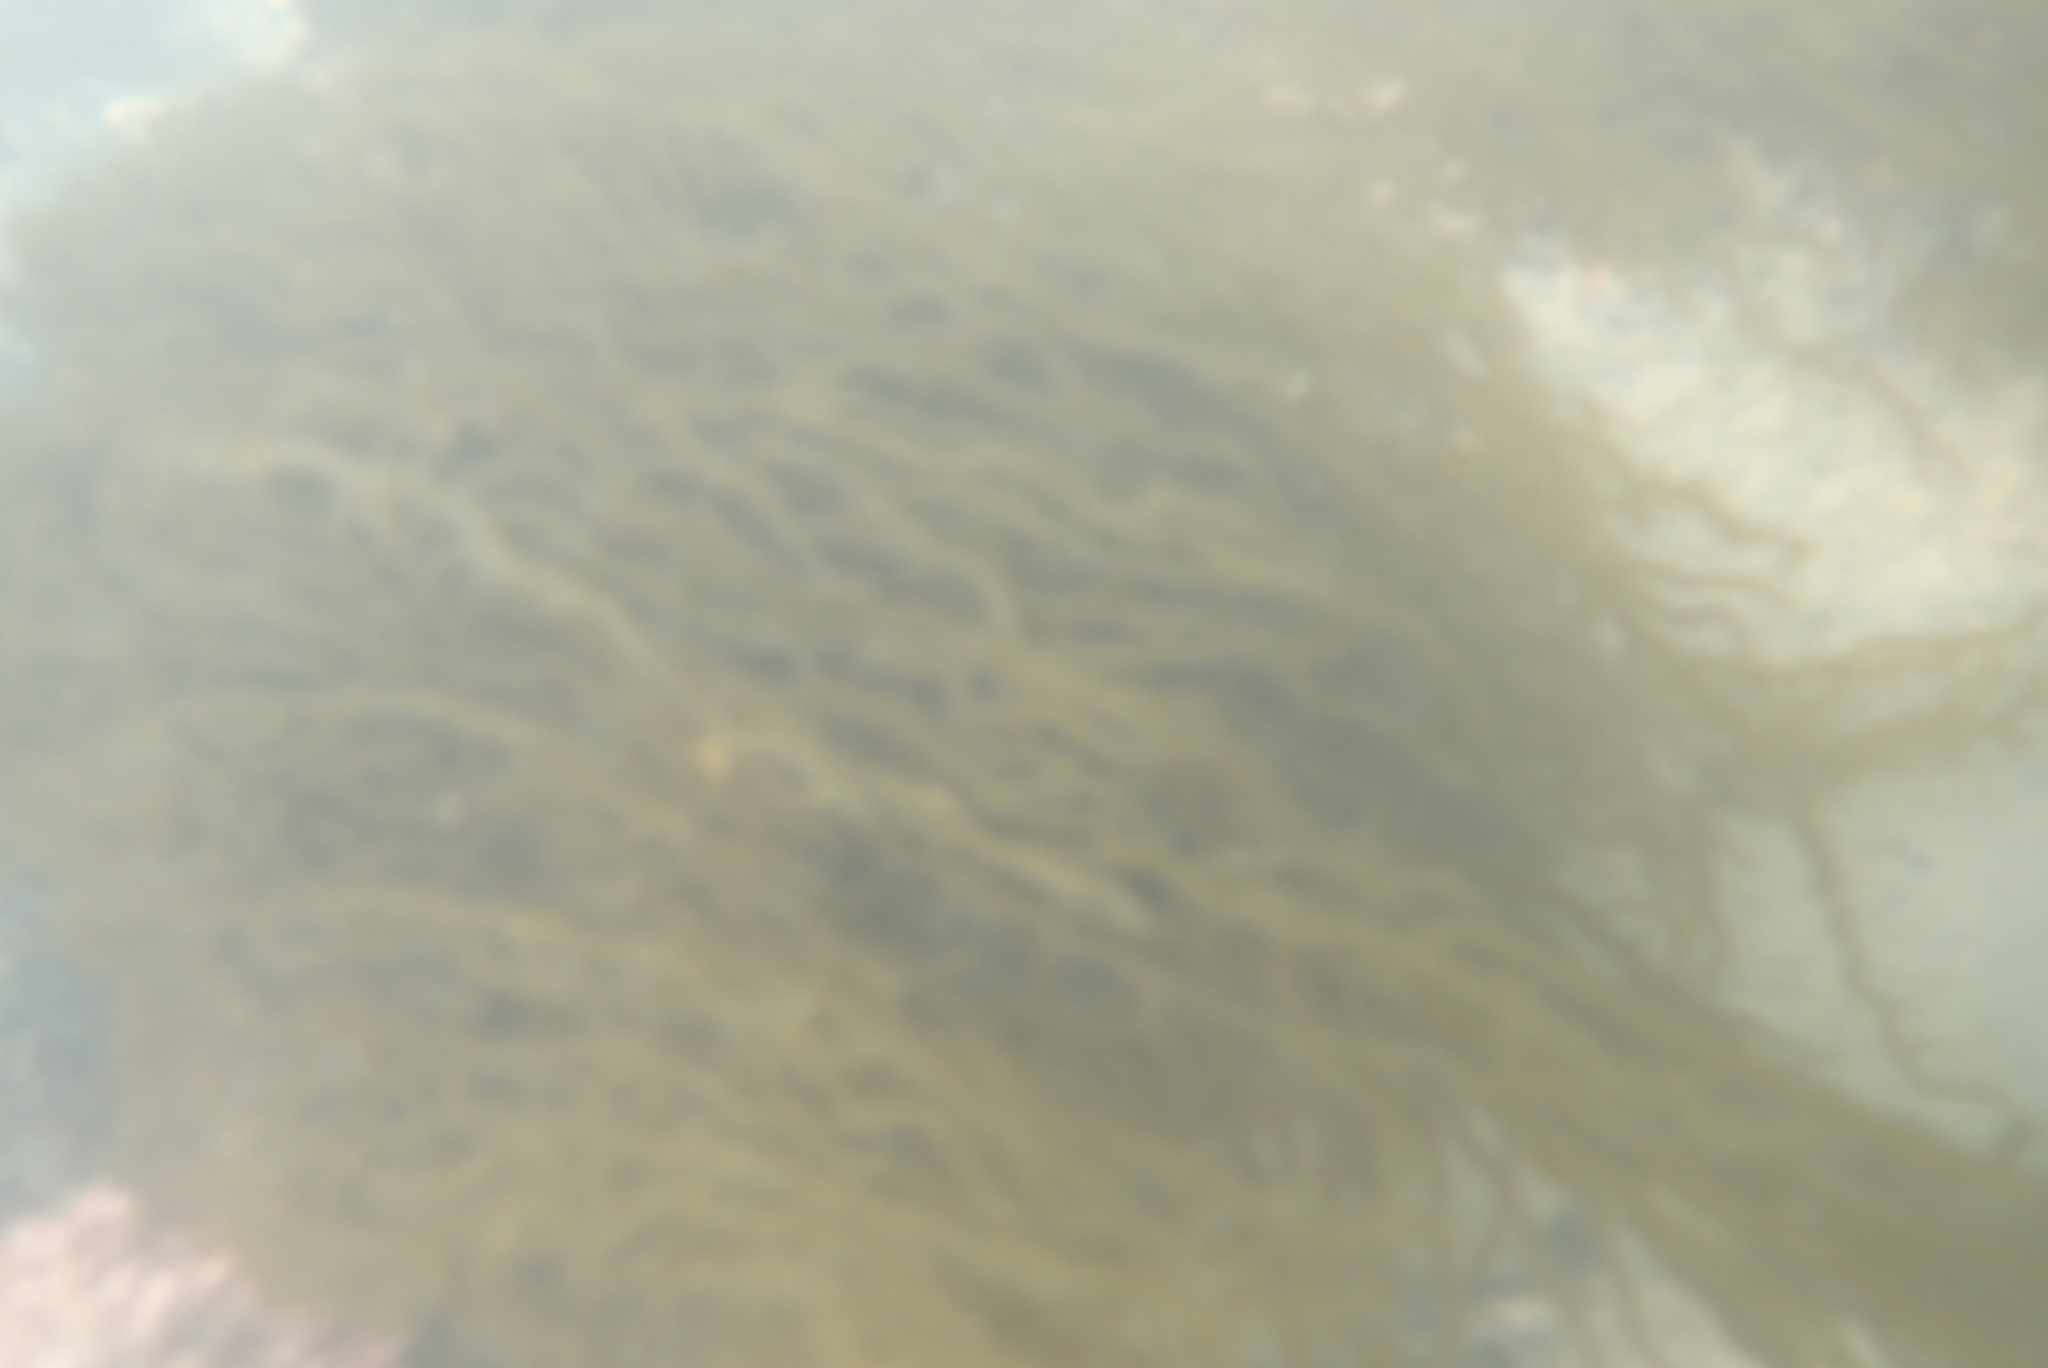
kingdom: Chromista
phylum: Ochrophyta
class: Phaeophyceae
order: Scytothamnales
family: Scytothamnaceae
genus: Scytothamnus
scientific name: Scytothamnus australis
